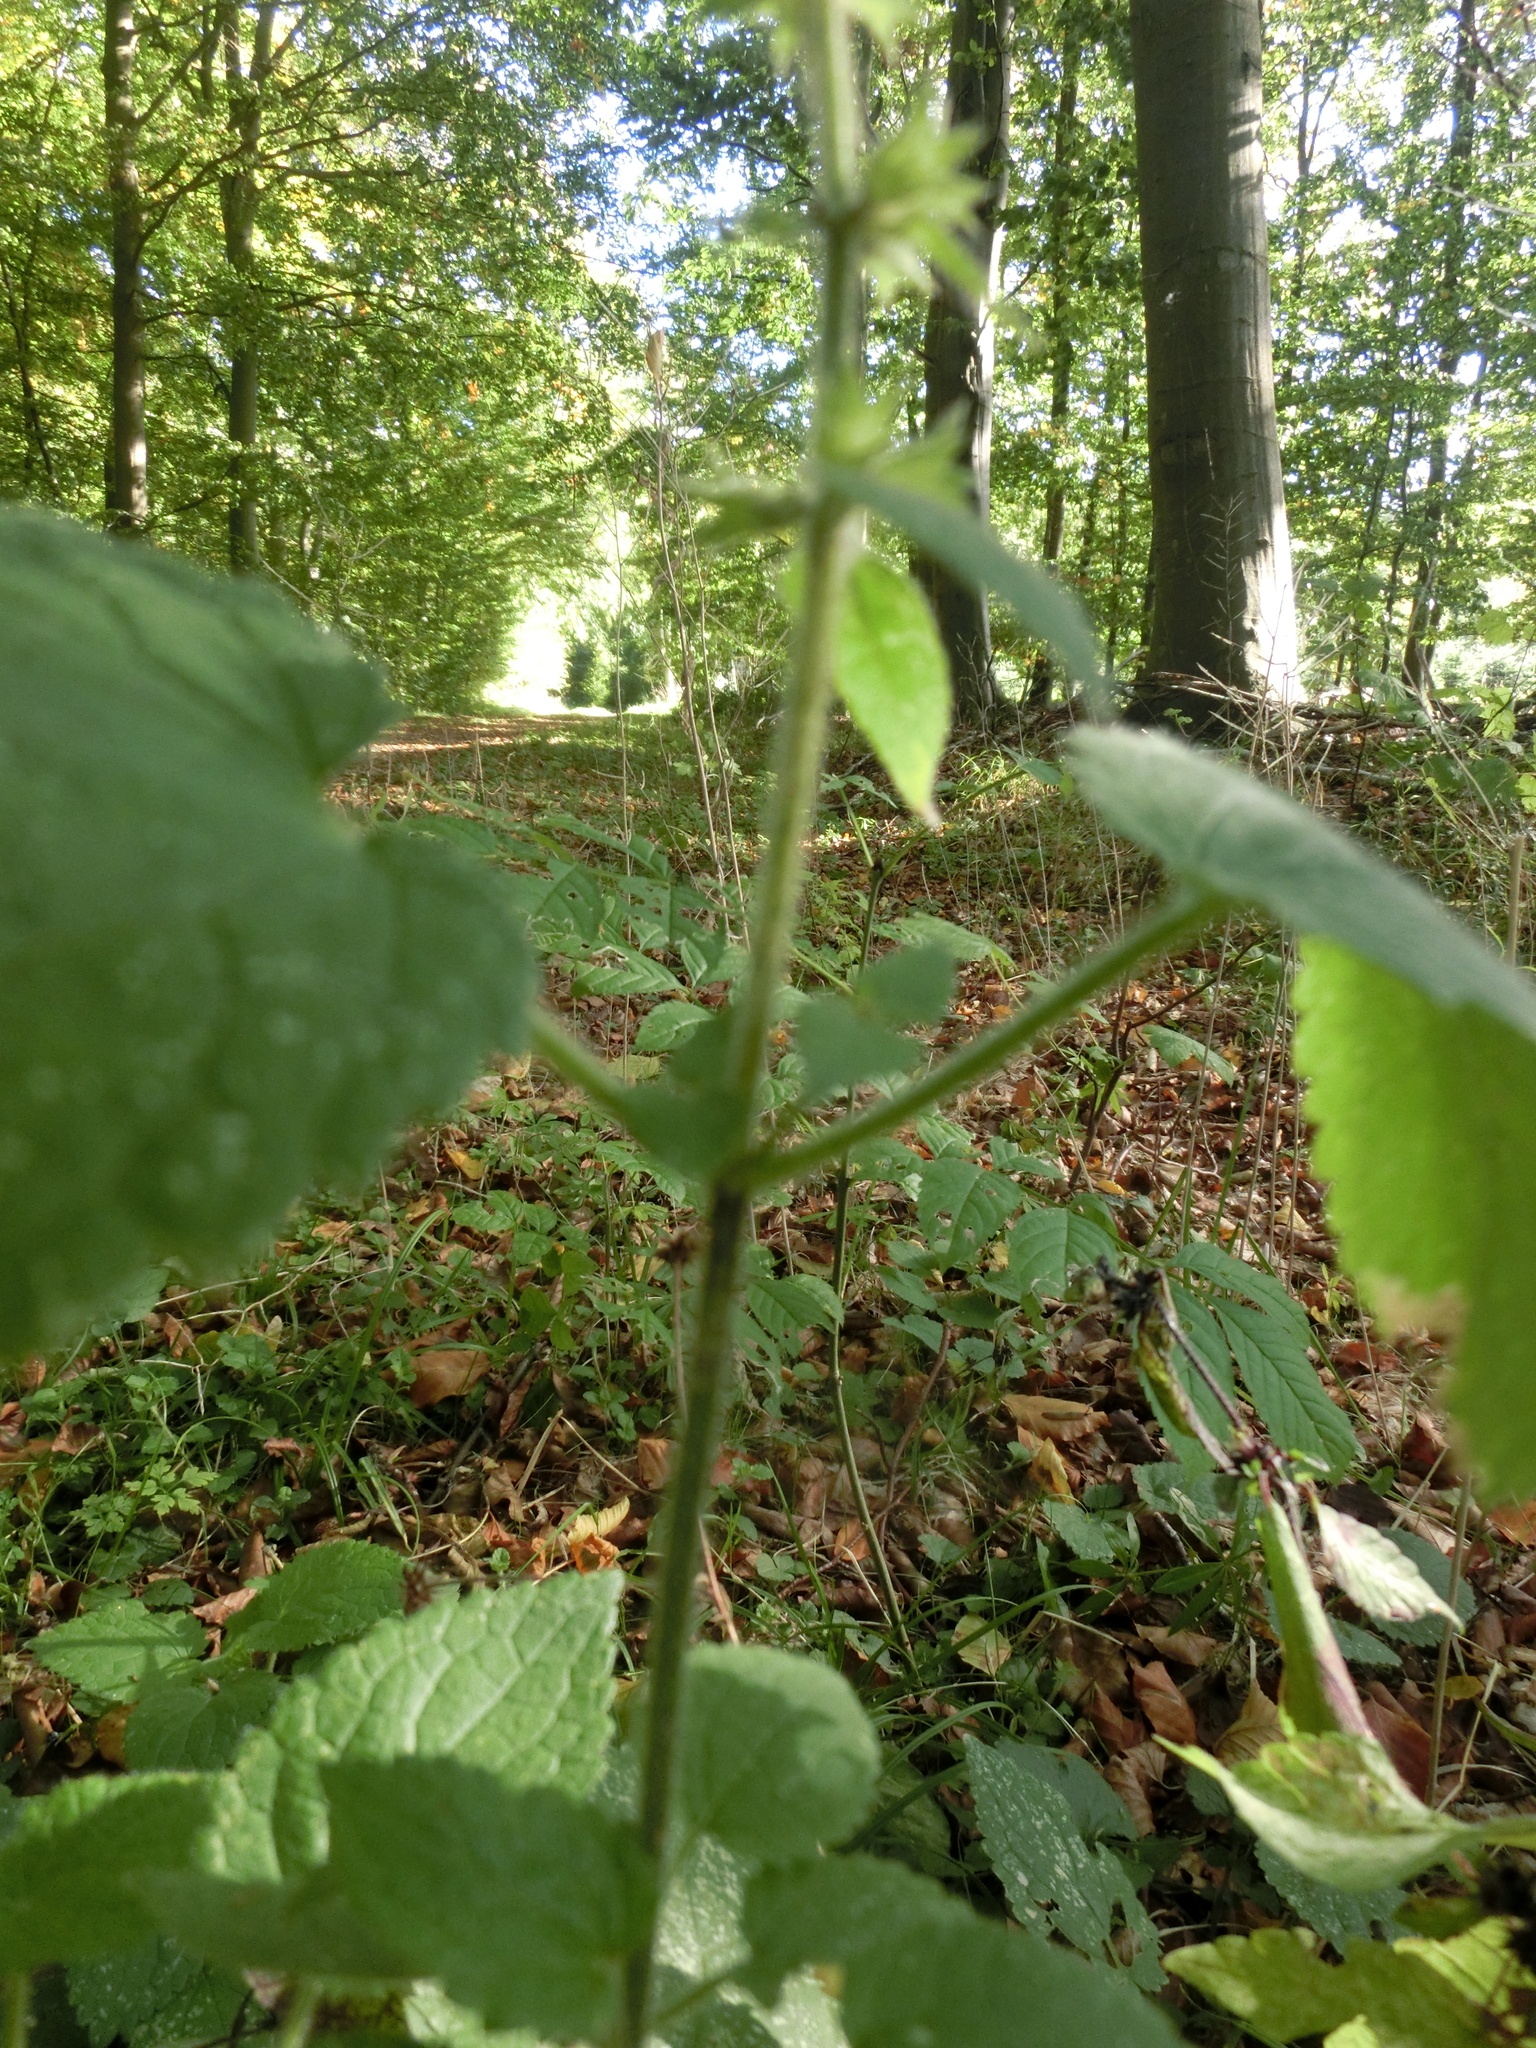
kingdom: Plantae
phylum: Tracheophyta
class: Magnoliopsida
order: Lamiales
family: Lamiaceae
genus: Stachys
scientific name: Stachys sylvatica
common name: Hedge woundwort
